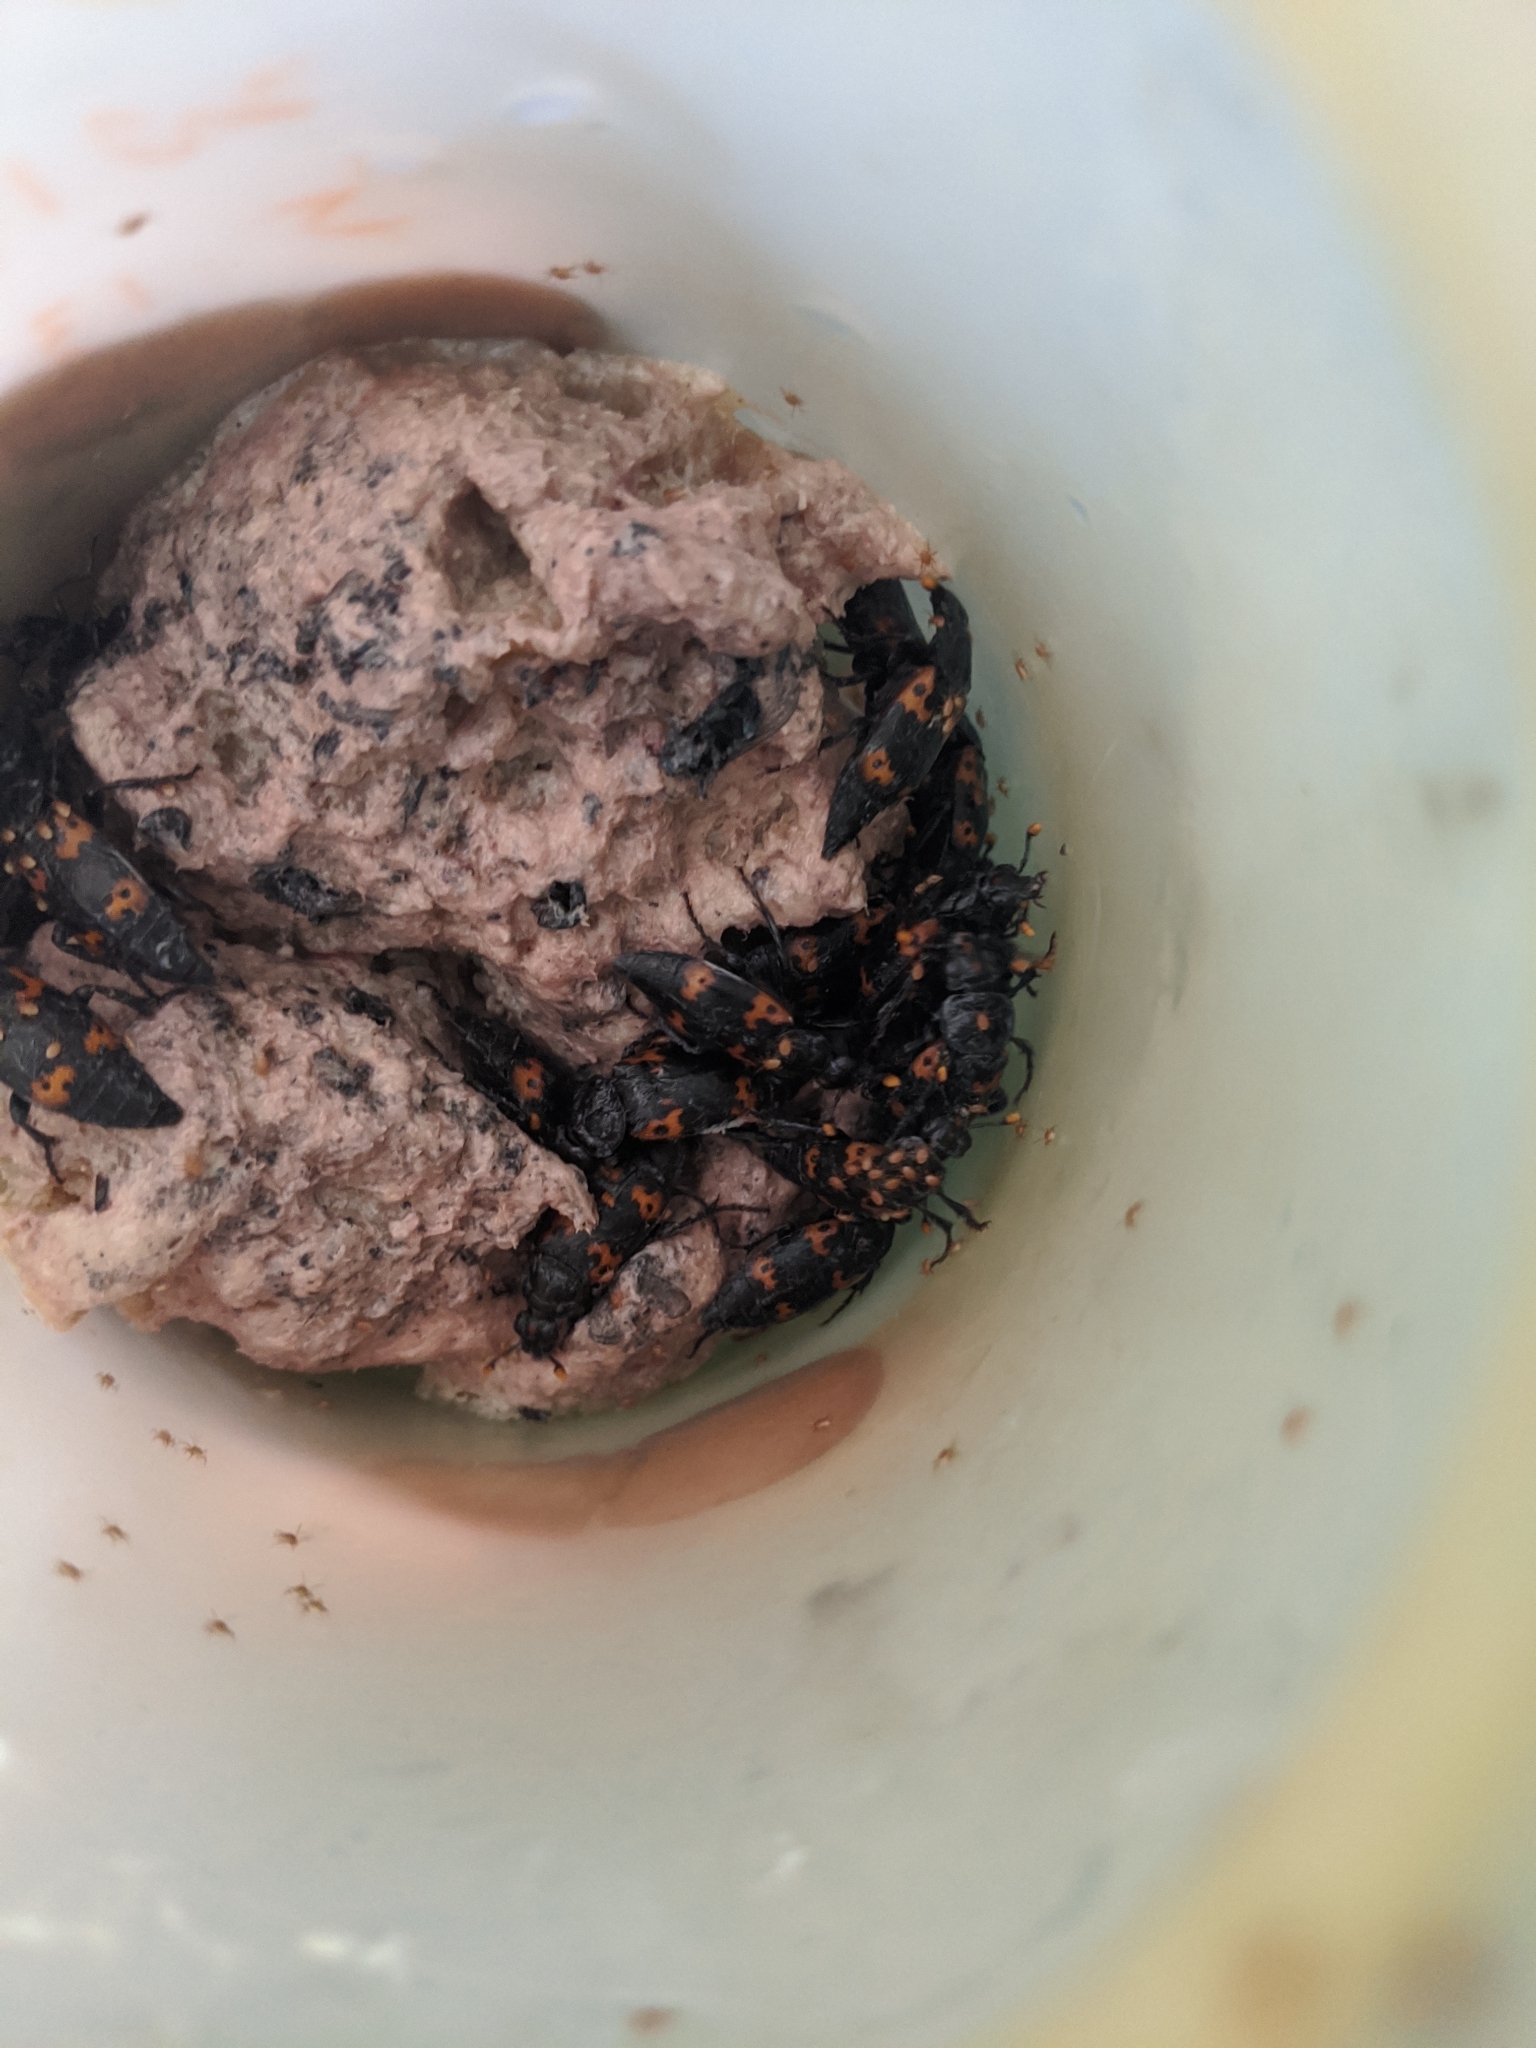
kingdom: Animalia
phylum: Arthropoda
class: Insecta
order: Coleoptera
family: Staphylinidae
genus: Nicrophorus
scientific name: Nicrophorus nepalensis
